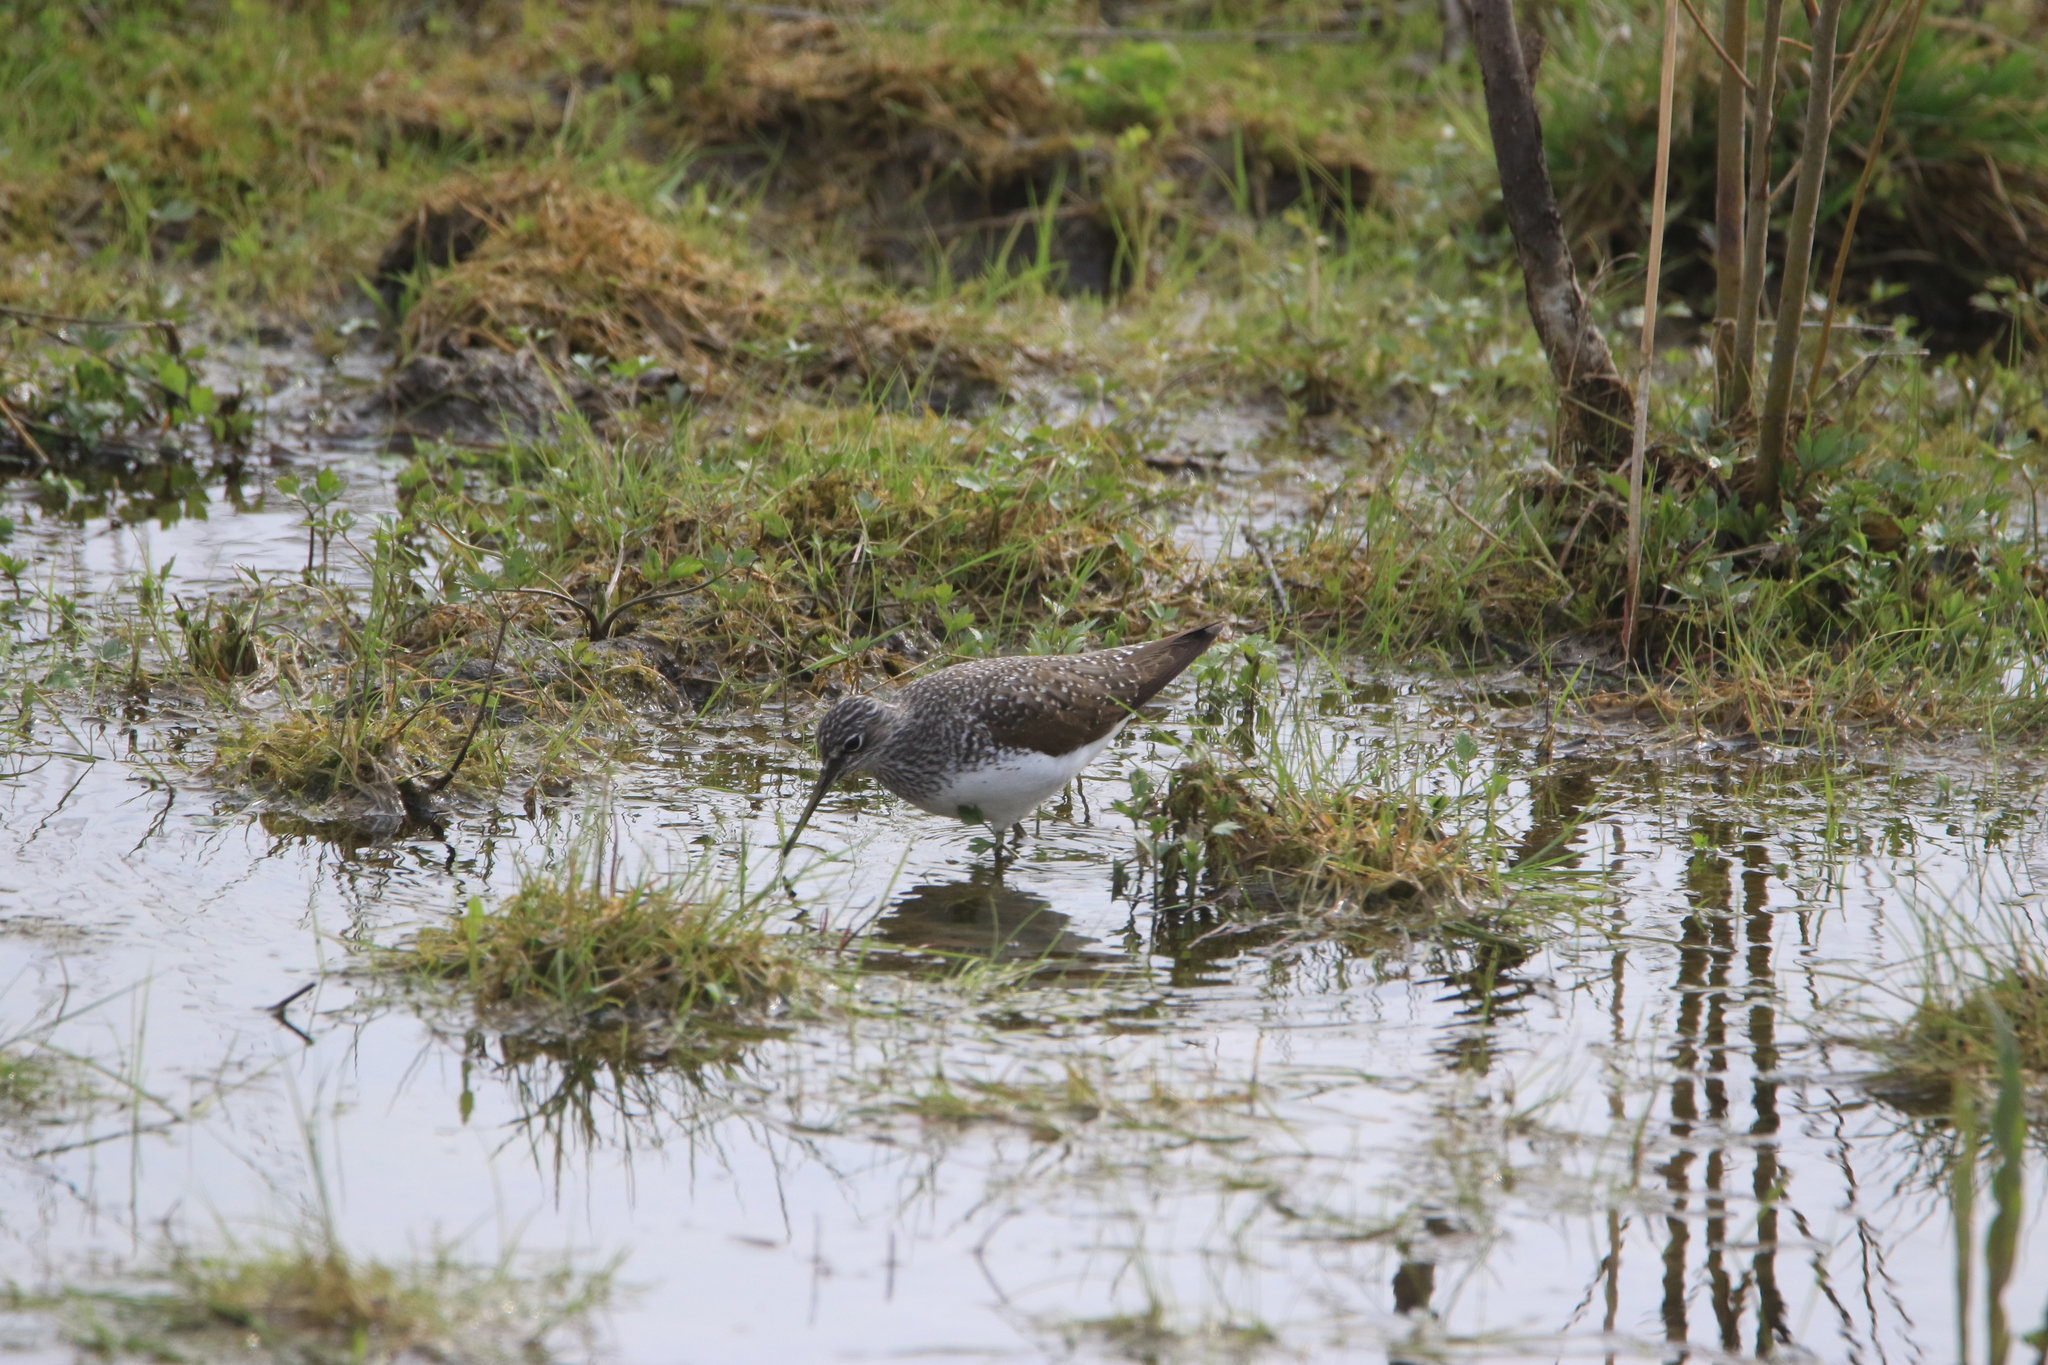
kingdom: Animalia
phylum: Chordata
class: Aves
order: Charadriiformes
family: Scolopacidae
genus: Tringa
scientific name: Tringa ochropus
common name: Green sandpiper
